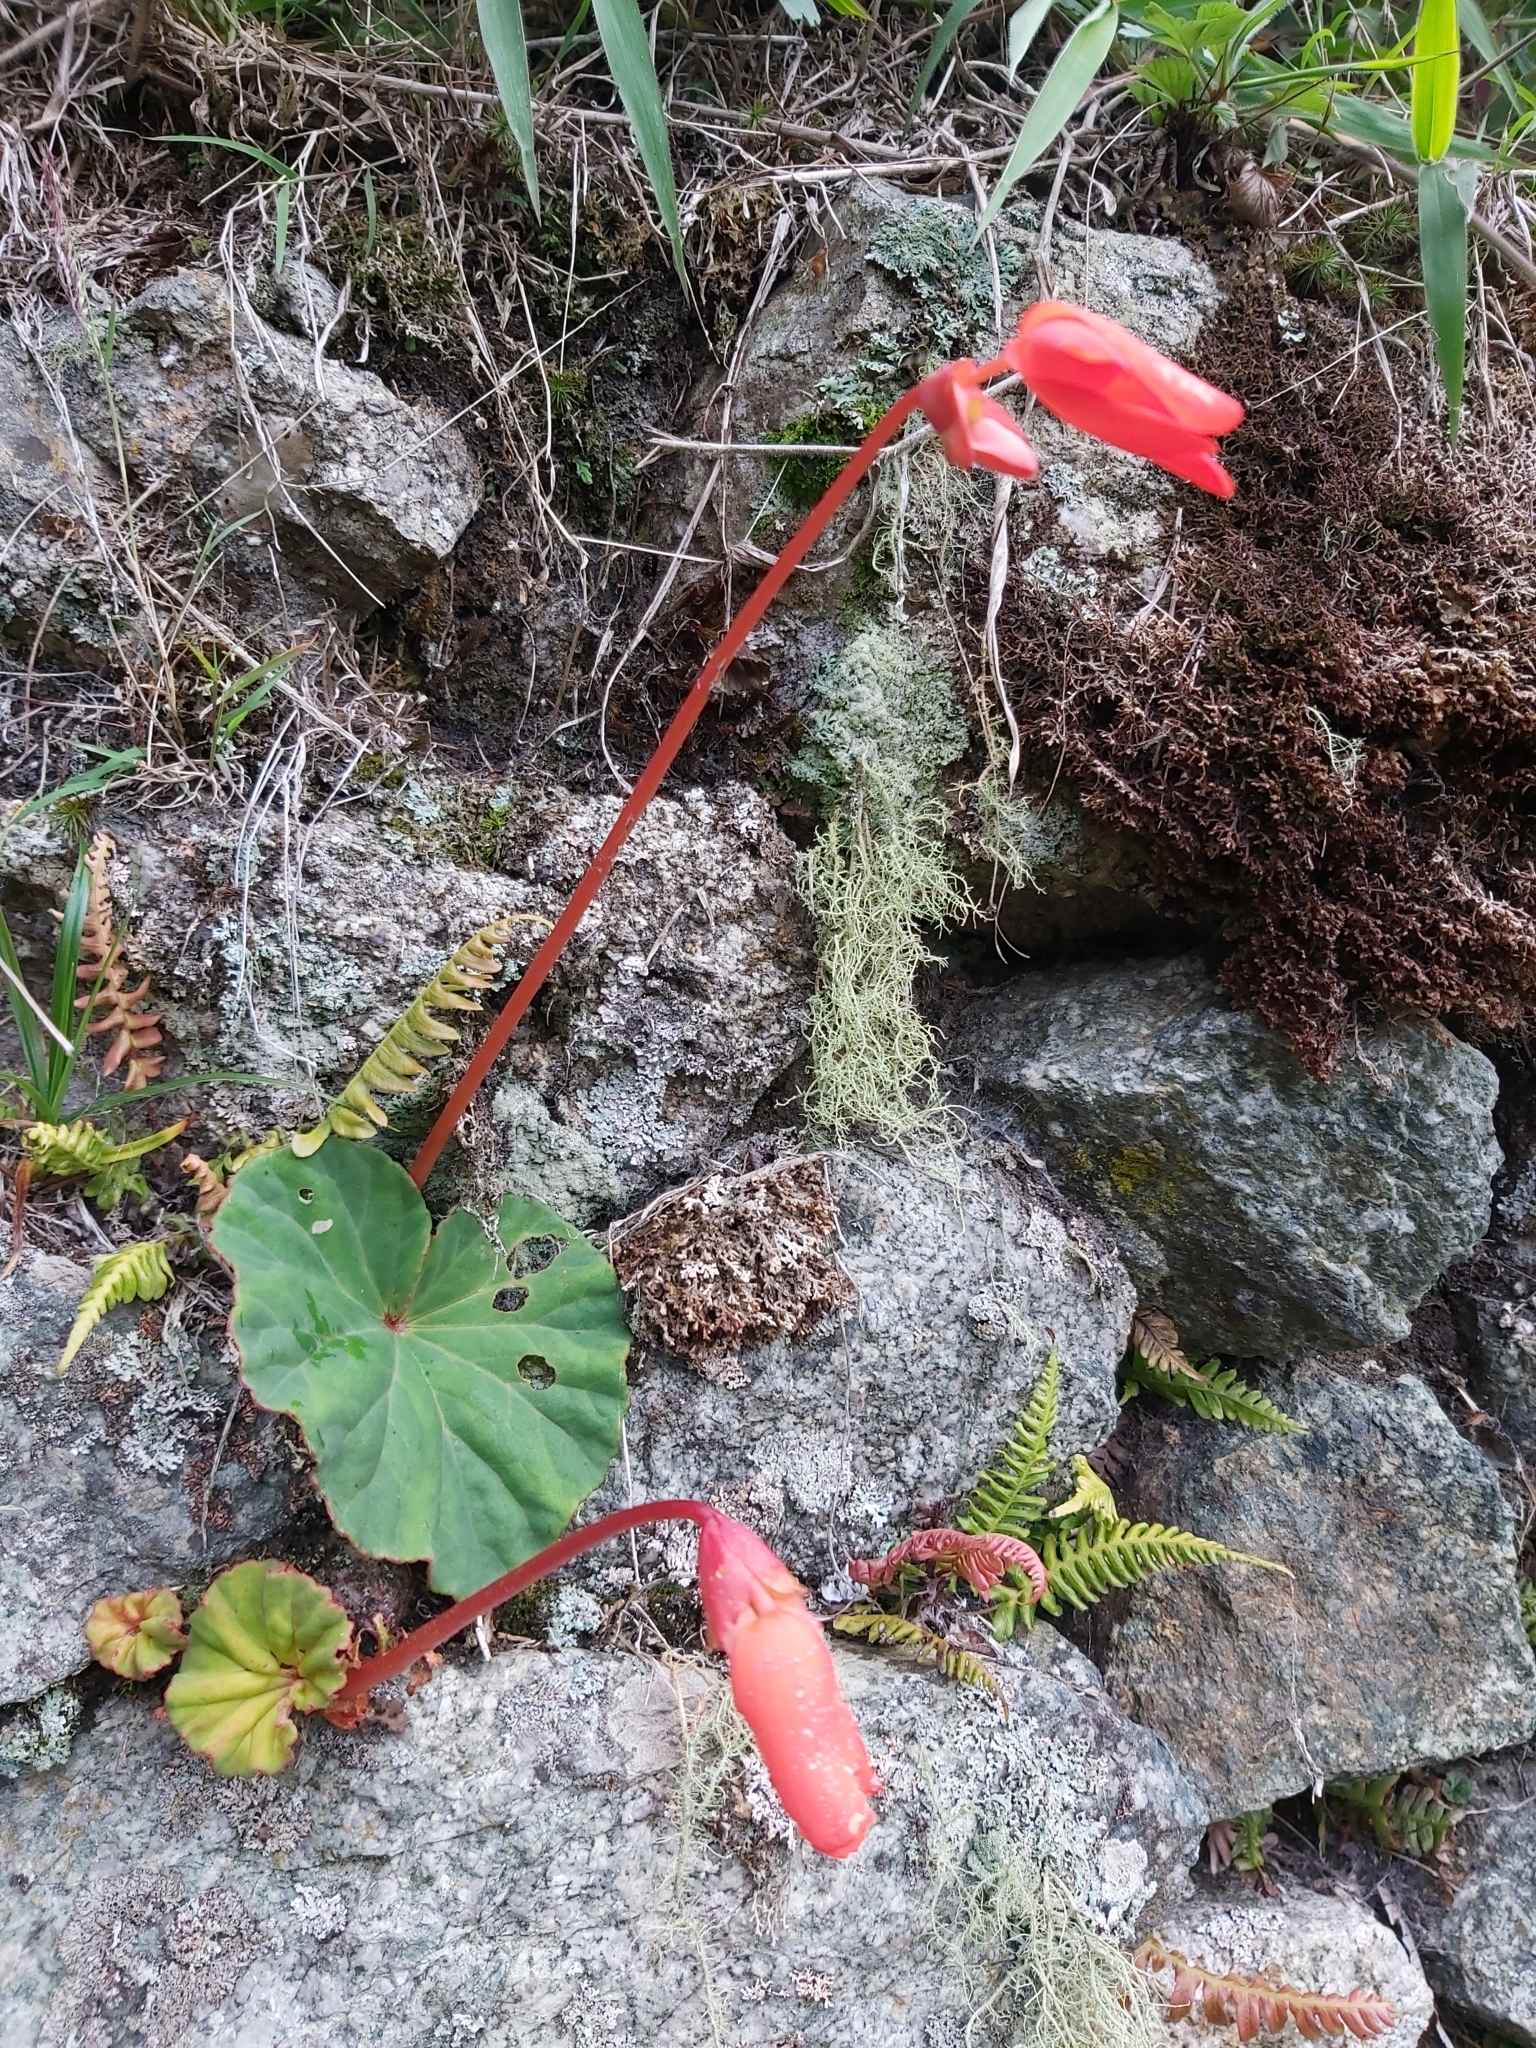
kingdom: Plantae
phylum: Tracheophyta
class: Magnoliopsida
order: Cucurbitales
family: Begoniaceae
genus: Begonia
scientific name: Begonia veitchii
